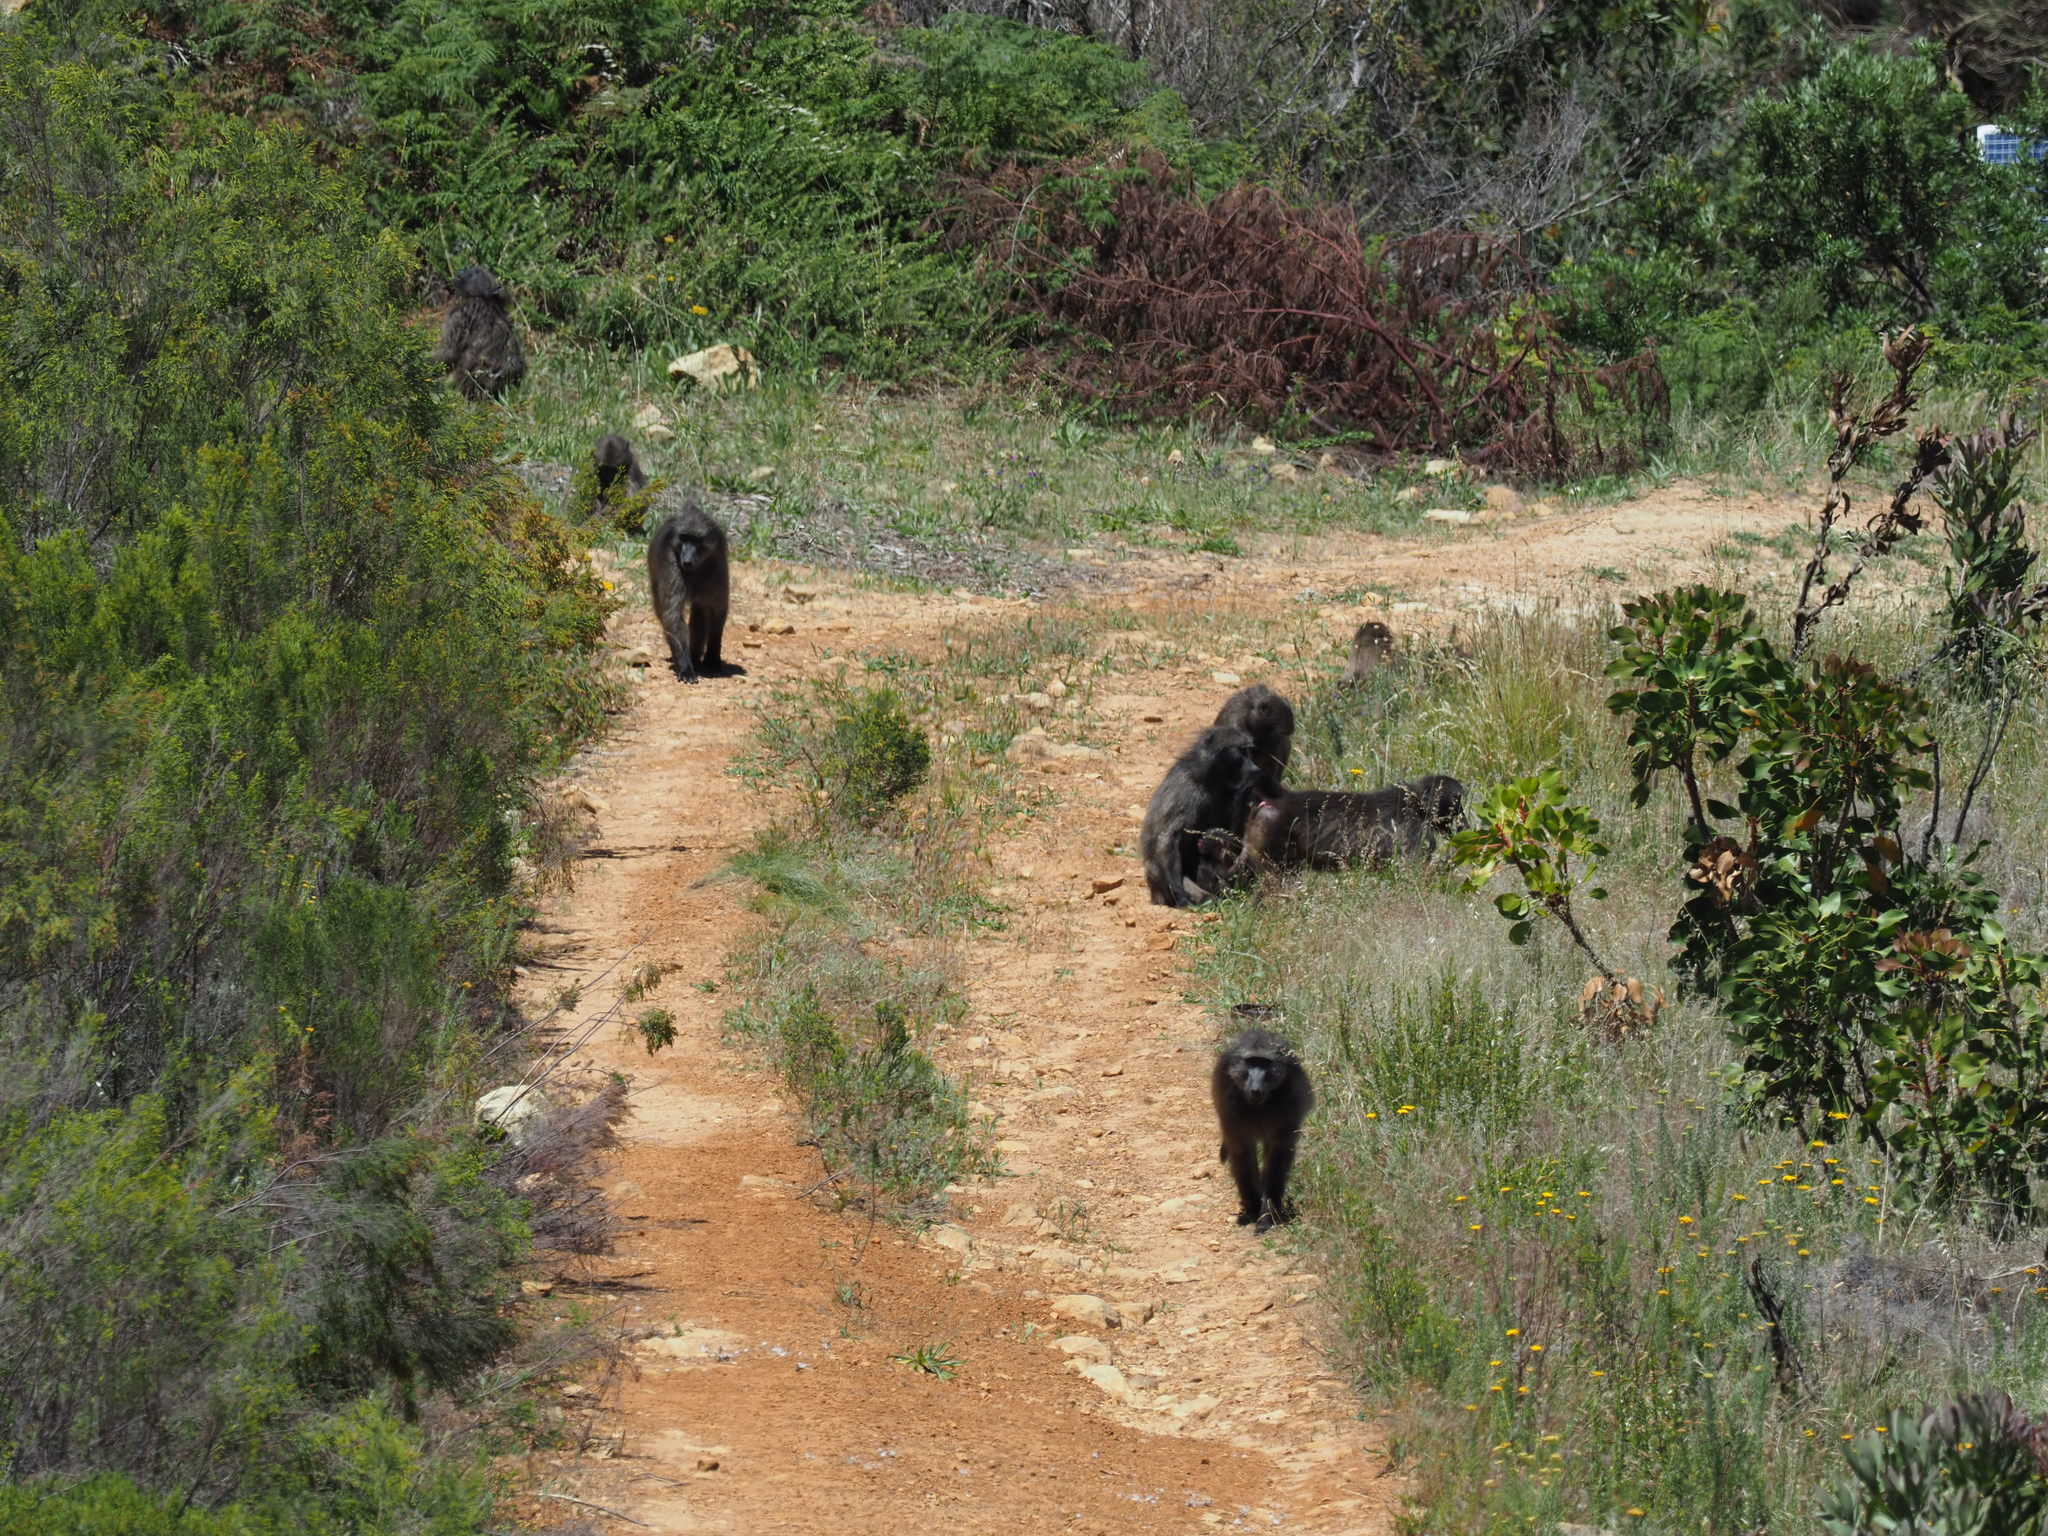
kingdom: Animalia
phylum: Chordata
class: Mammalia
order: Primates
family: Cercopithecidae
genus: Papio
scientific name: Papio ursinus
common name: Chacma baboon
